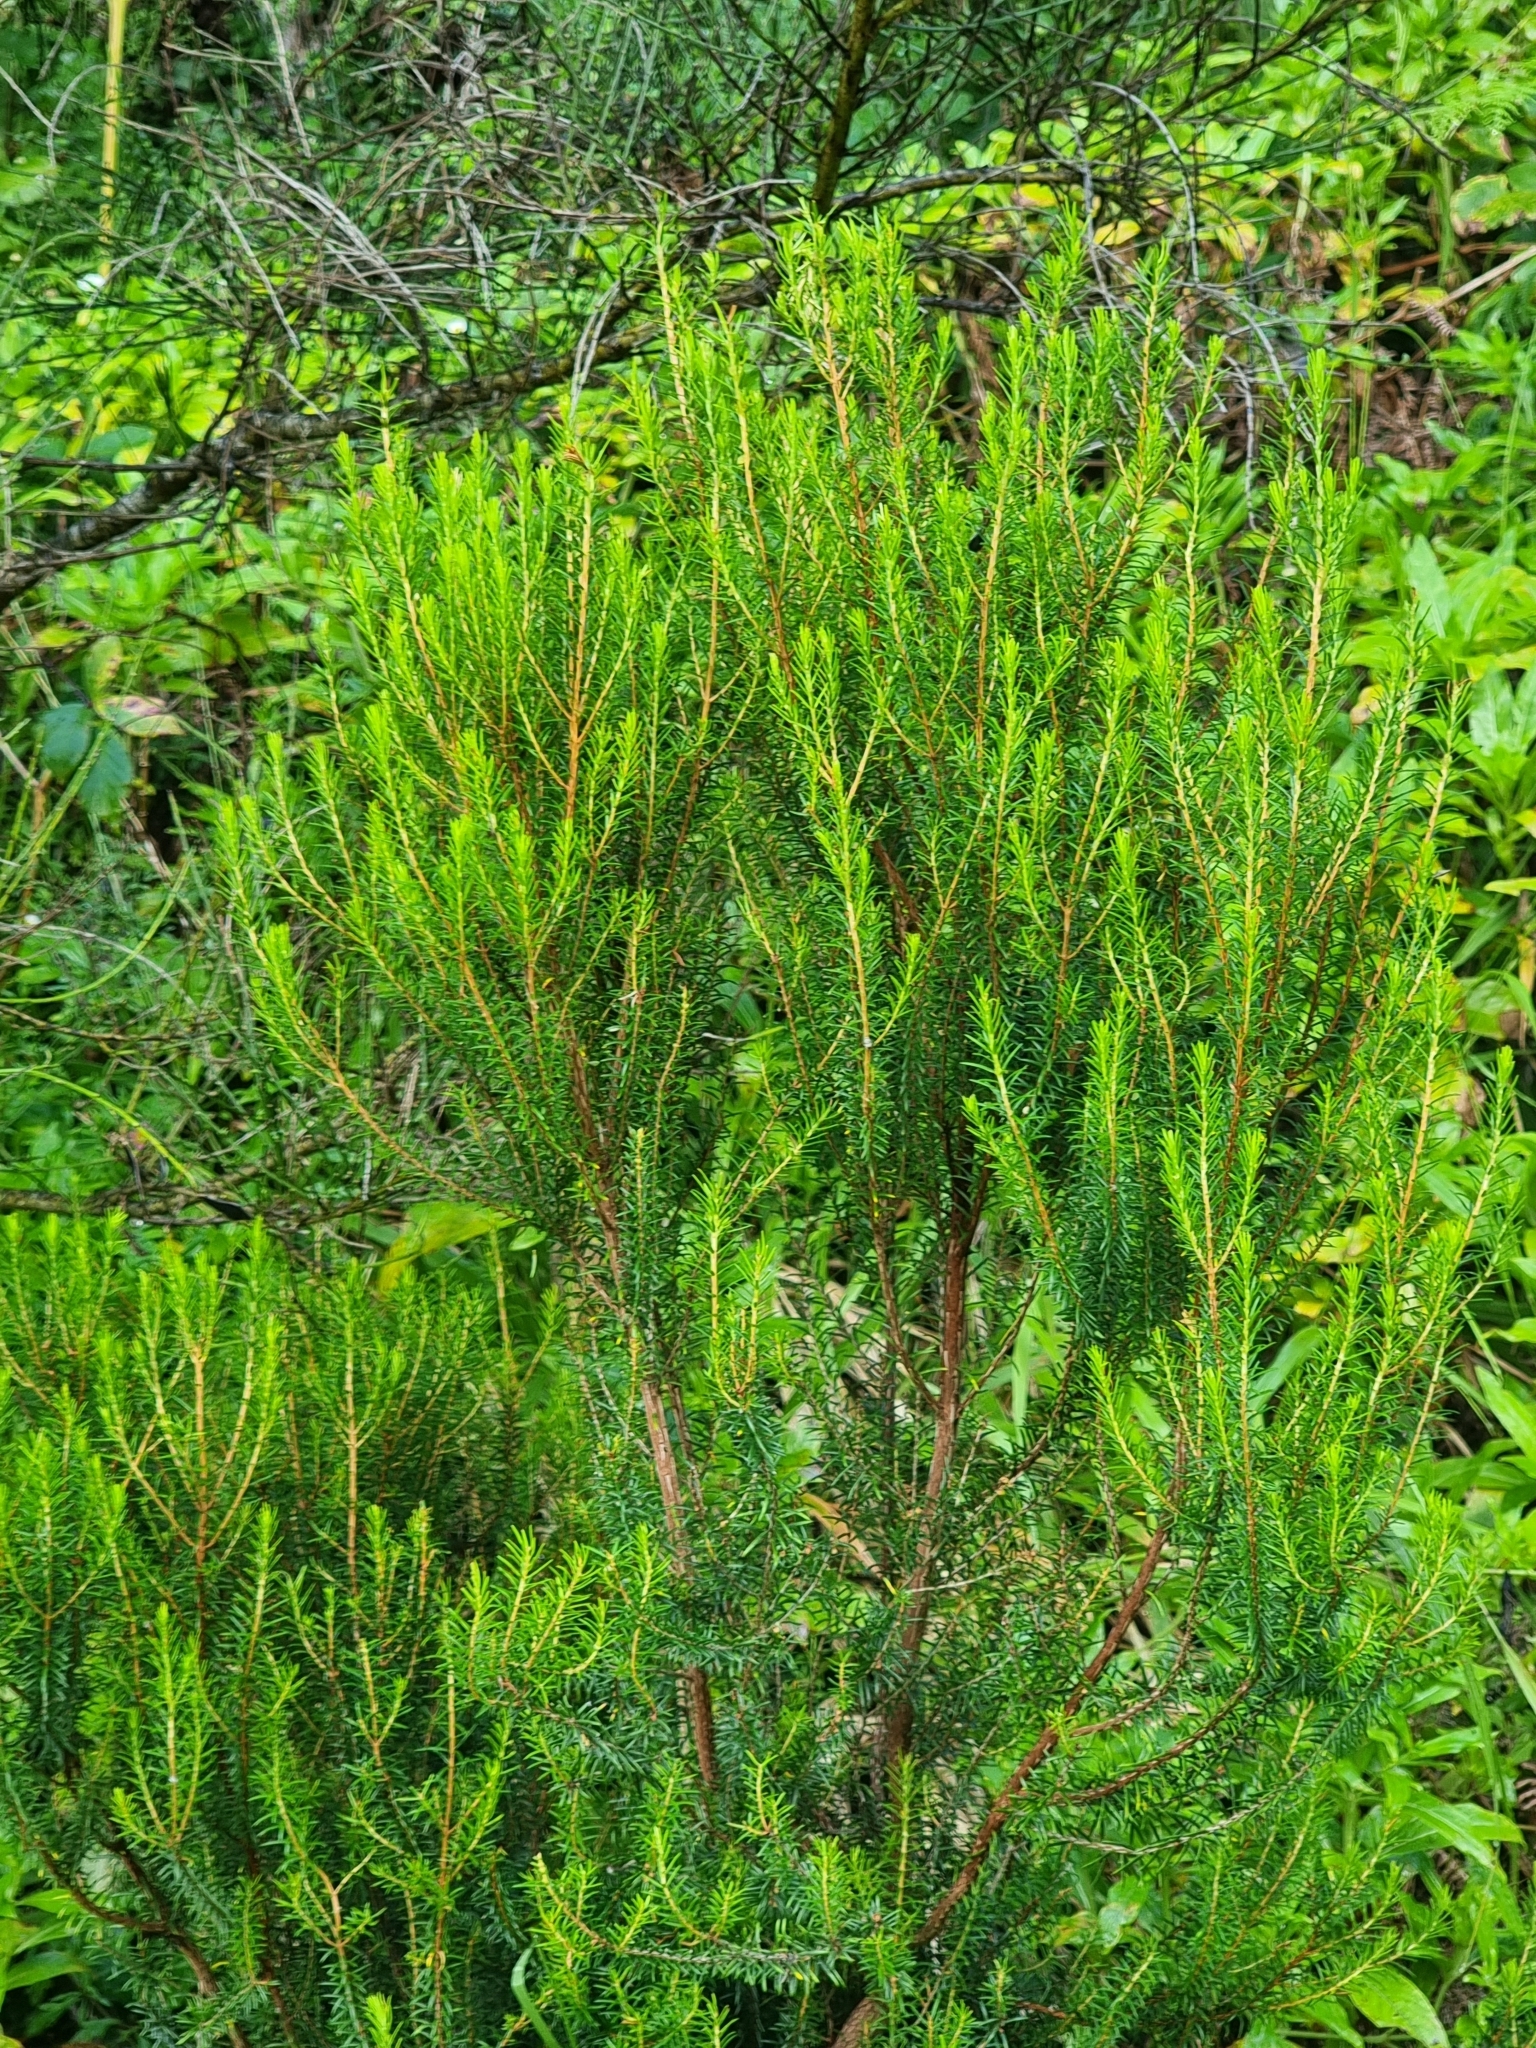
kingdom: Plantae
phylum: Tracheophyta
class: Magnoliopsida
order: Ericales
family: Ericaceae
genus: Erica
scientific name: Erica platycodon
